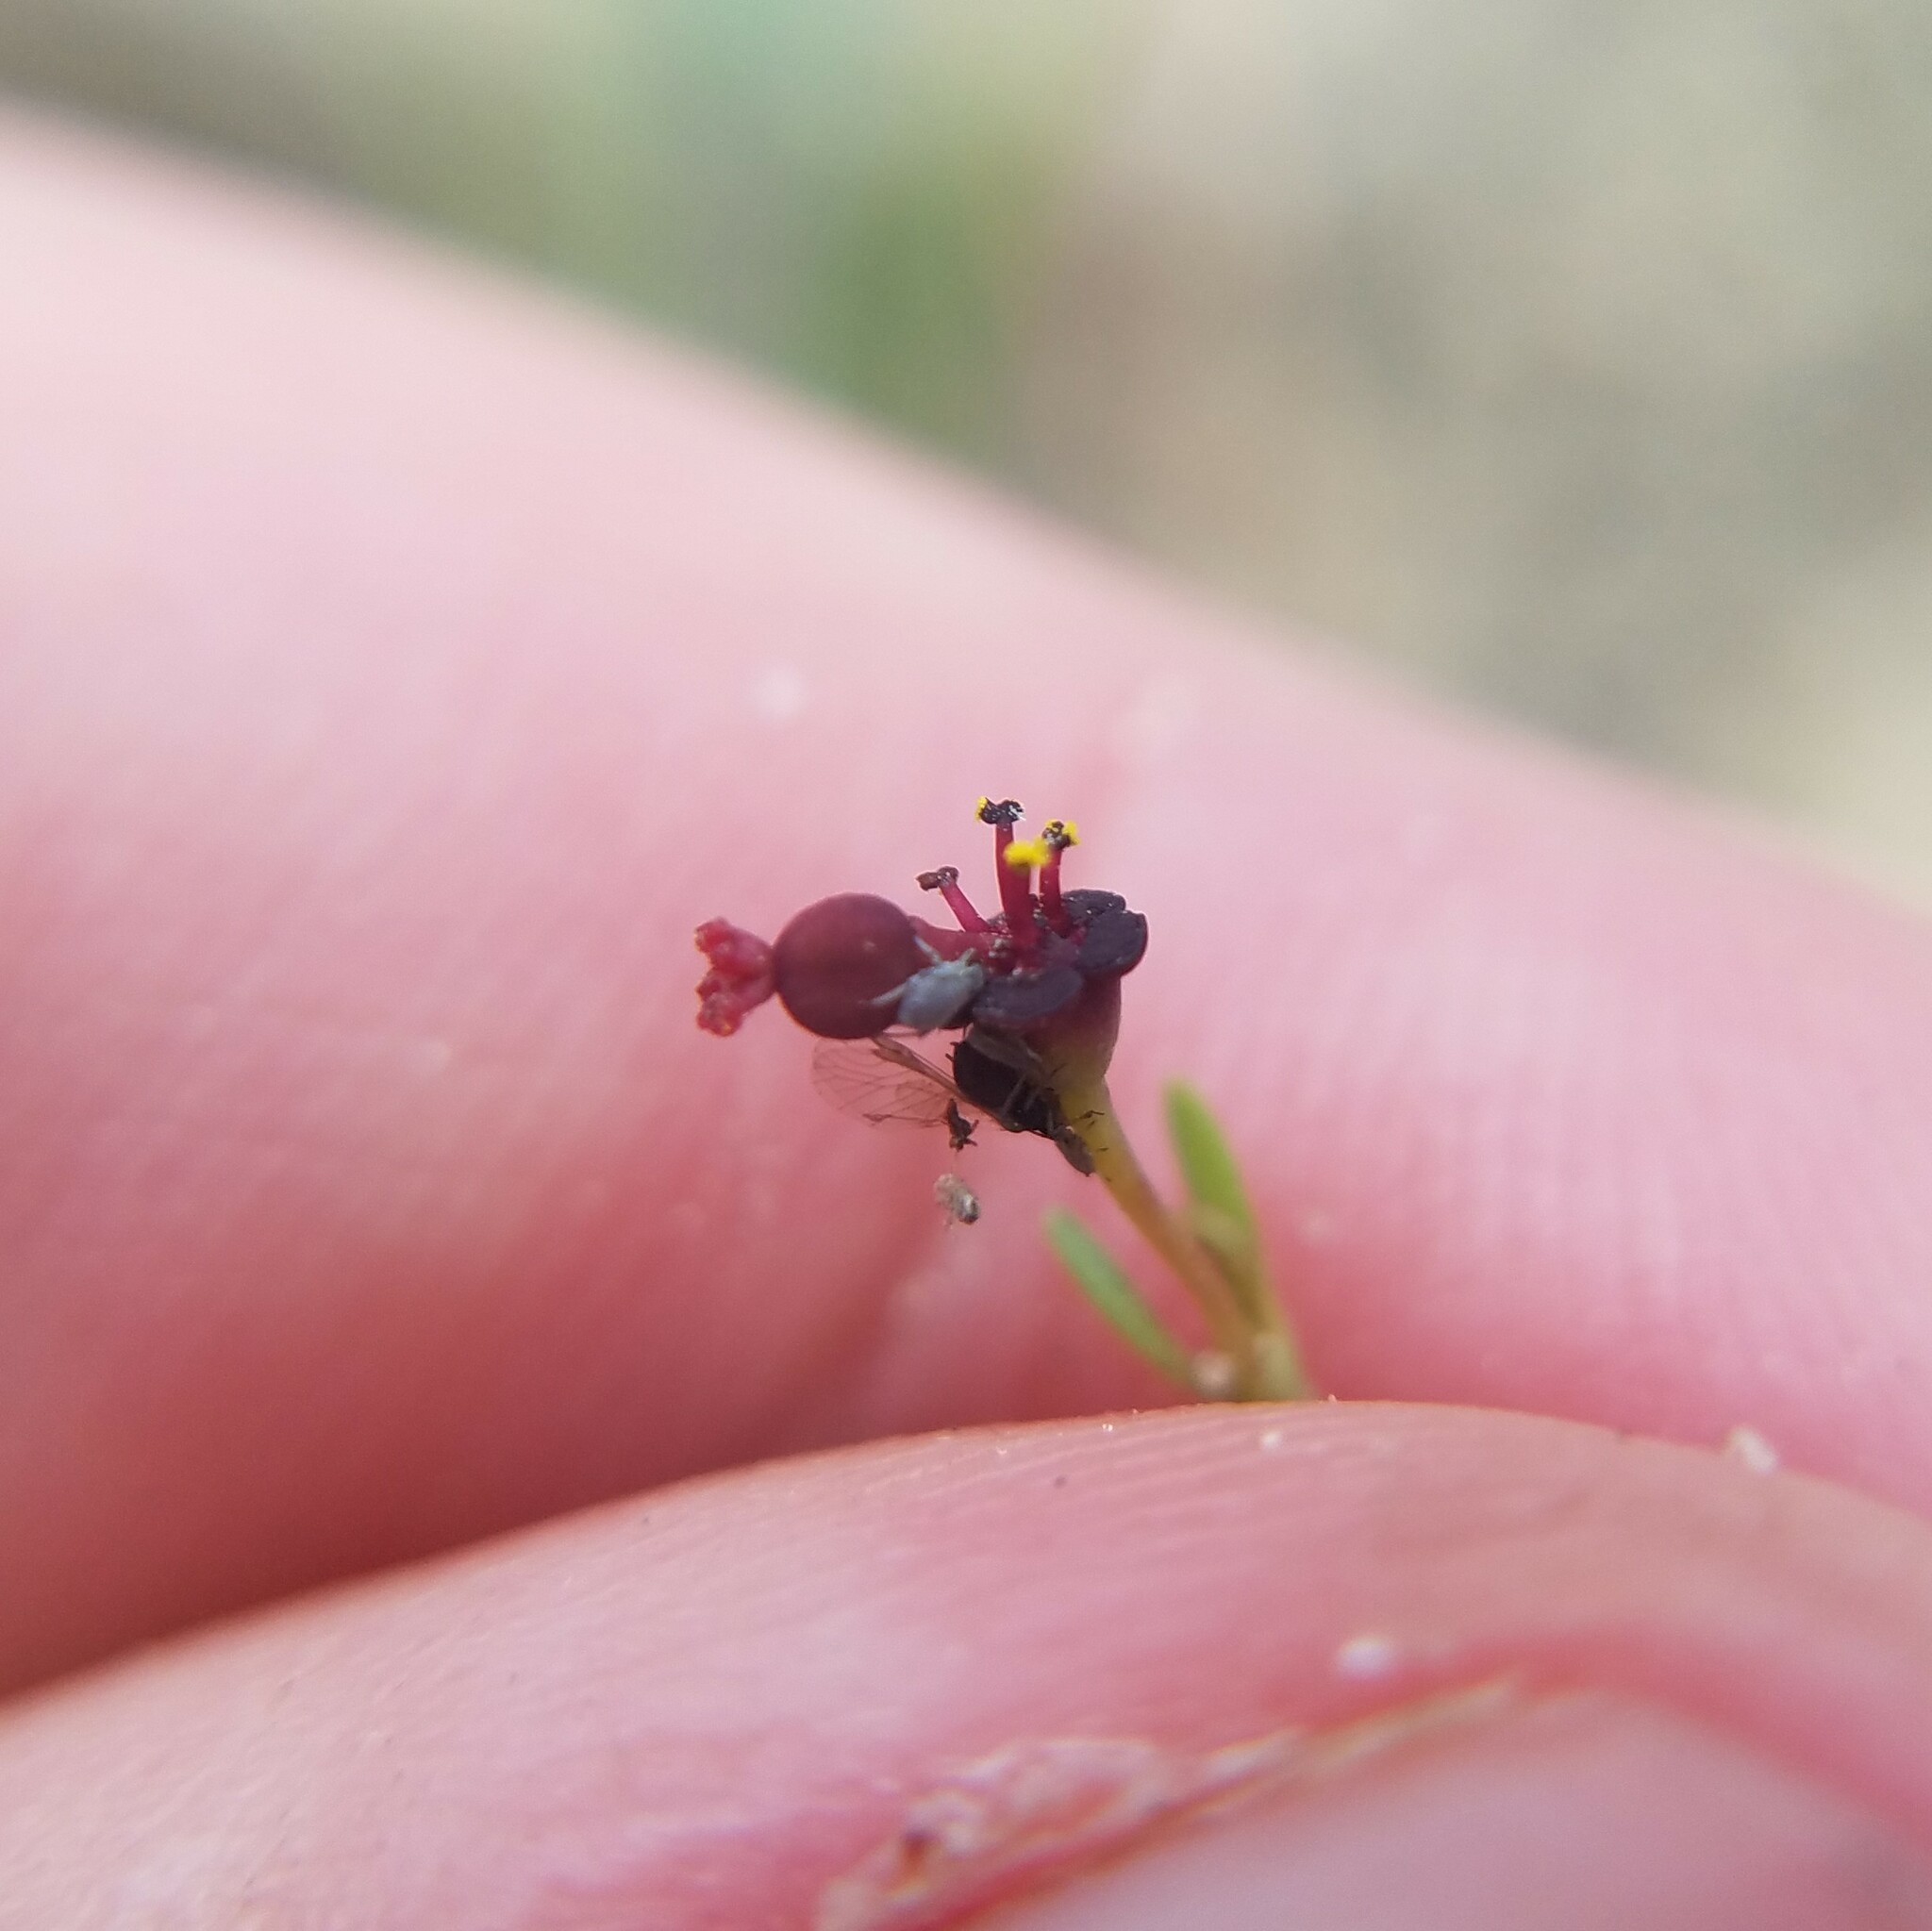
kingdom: Plantae
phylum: Tracheophyta
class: Magnoliopsida
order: Malpighiales
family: Euphorbiaceae
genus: Euphorbia
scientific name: Euphorbia exserta
